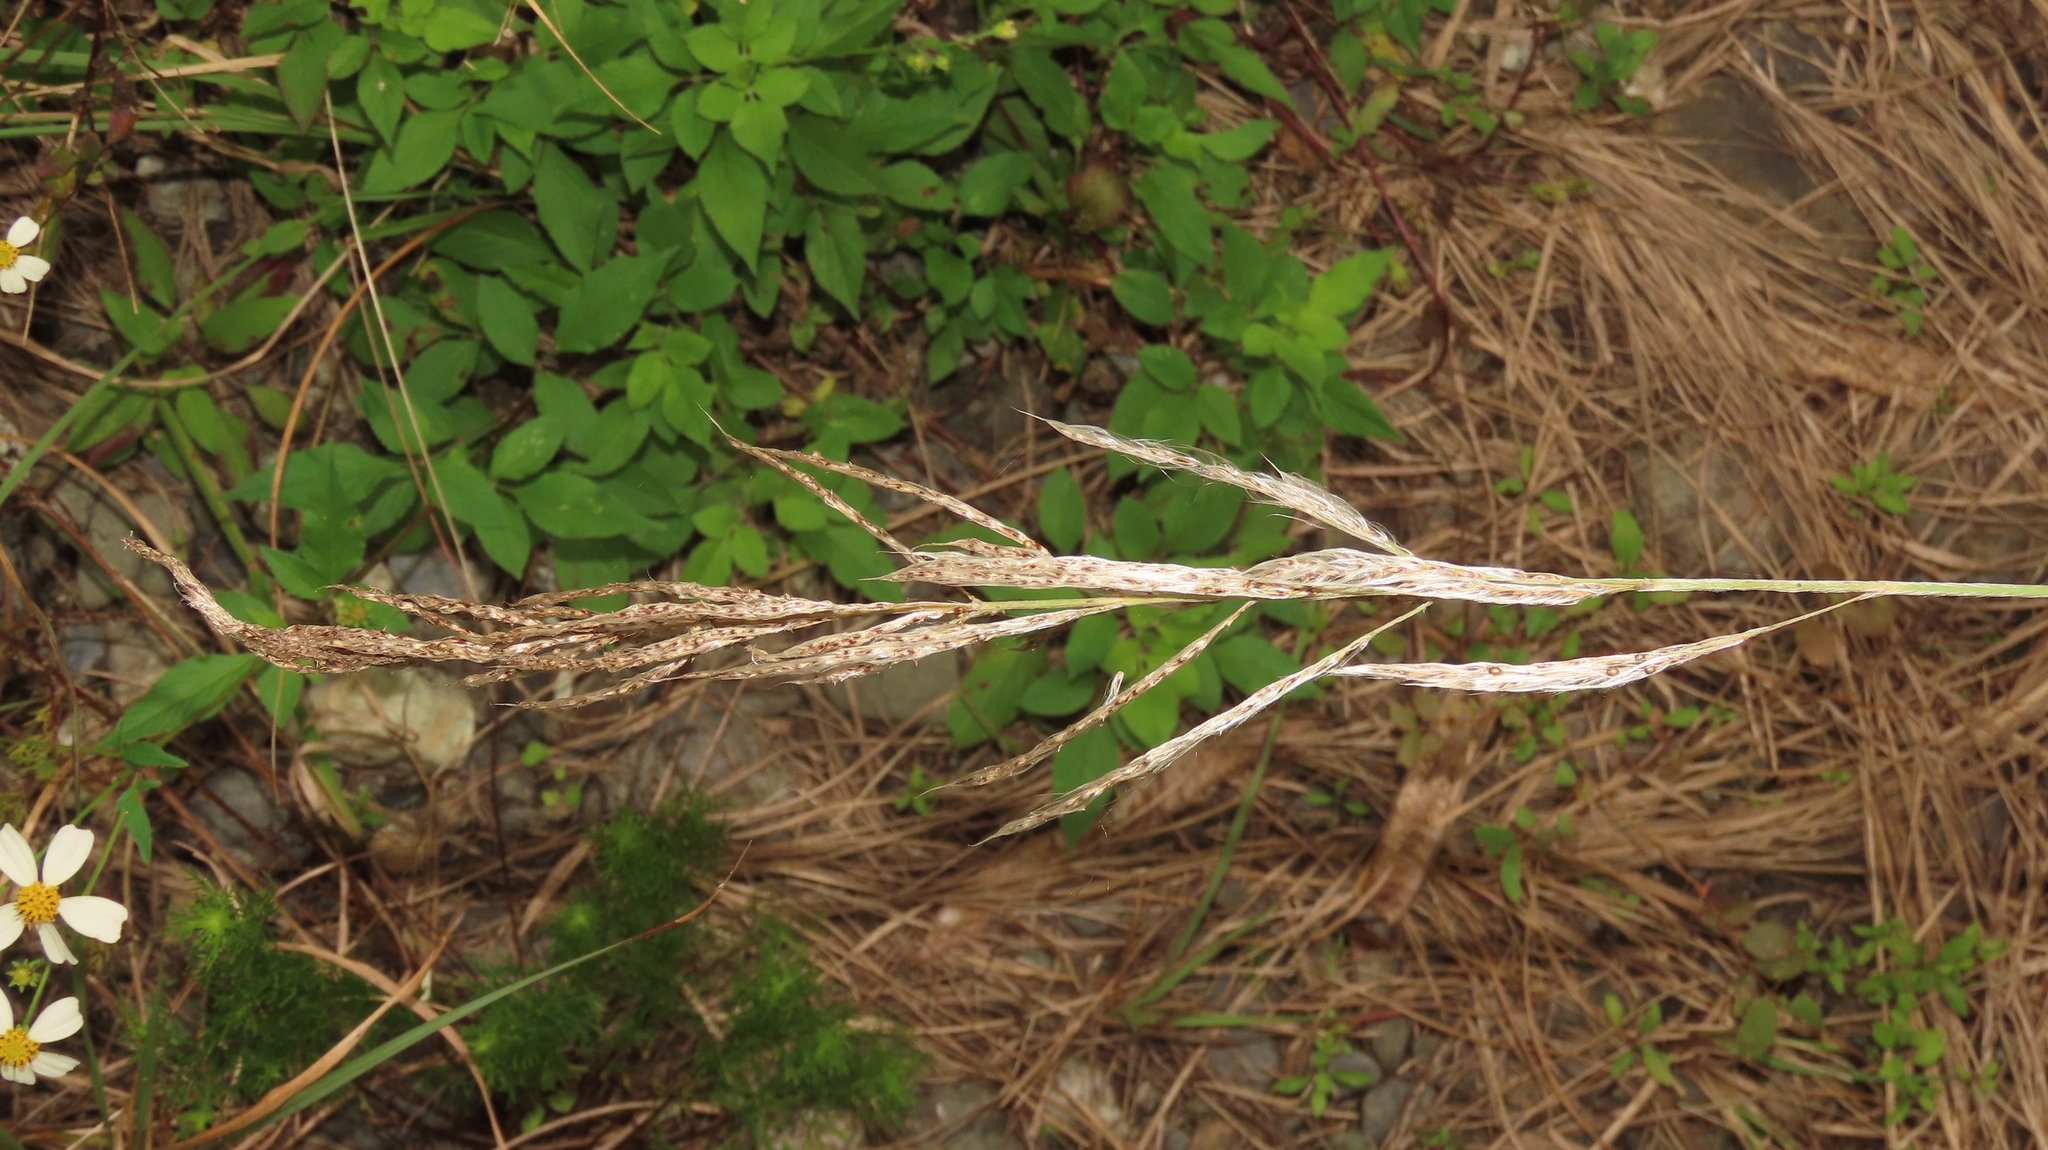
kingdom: Plantae
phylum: Tracheophyta
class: Liliopsida
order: Poales
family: Poaceae
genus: Saccharum
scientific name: Saccharum spontaneum
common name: Wild sugarcane
